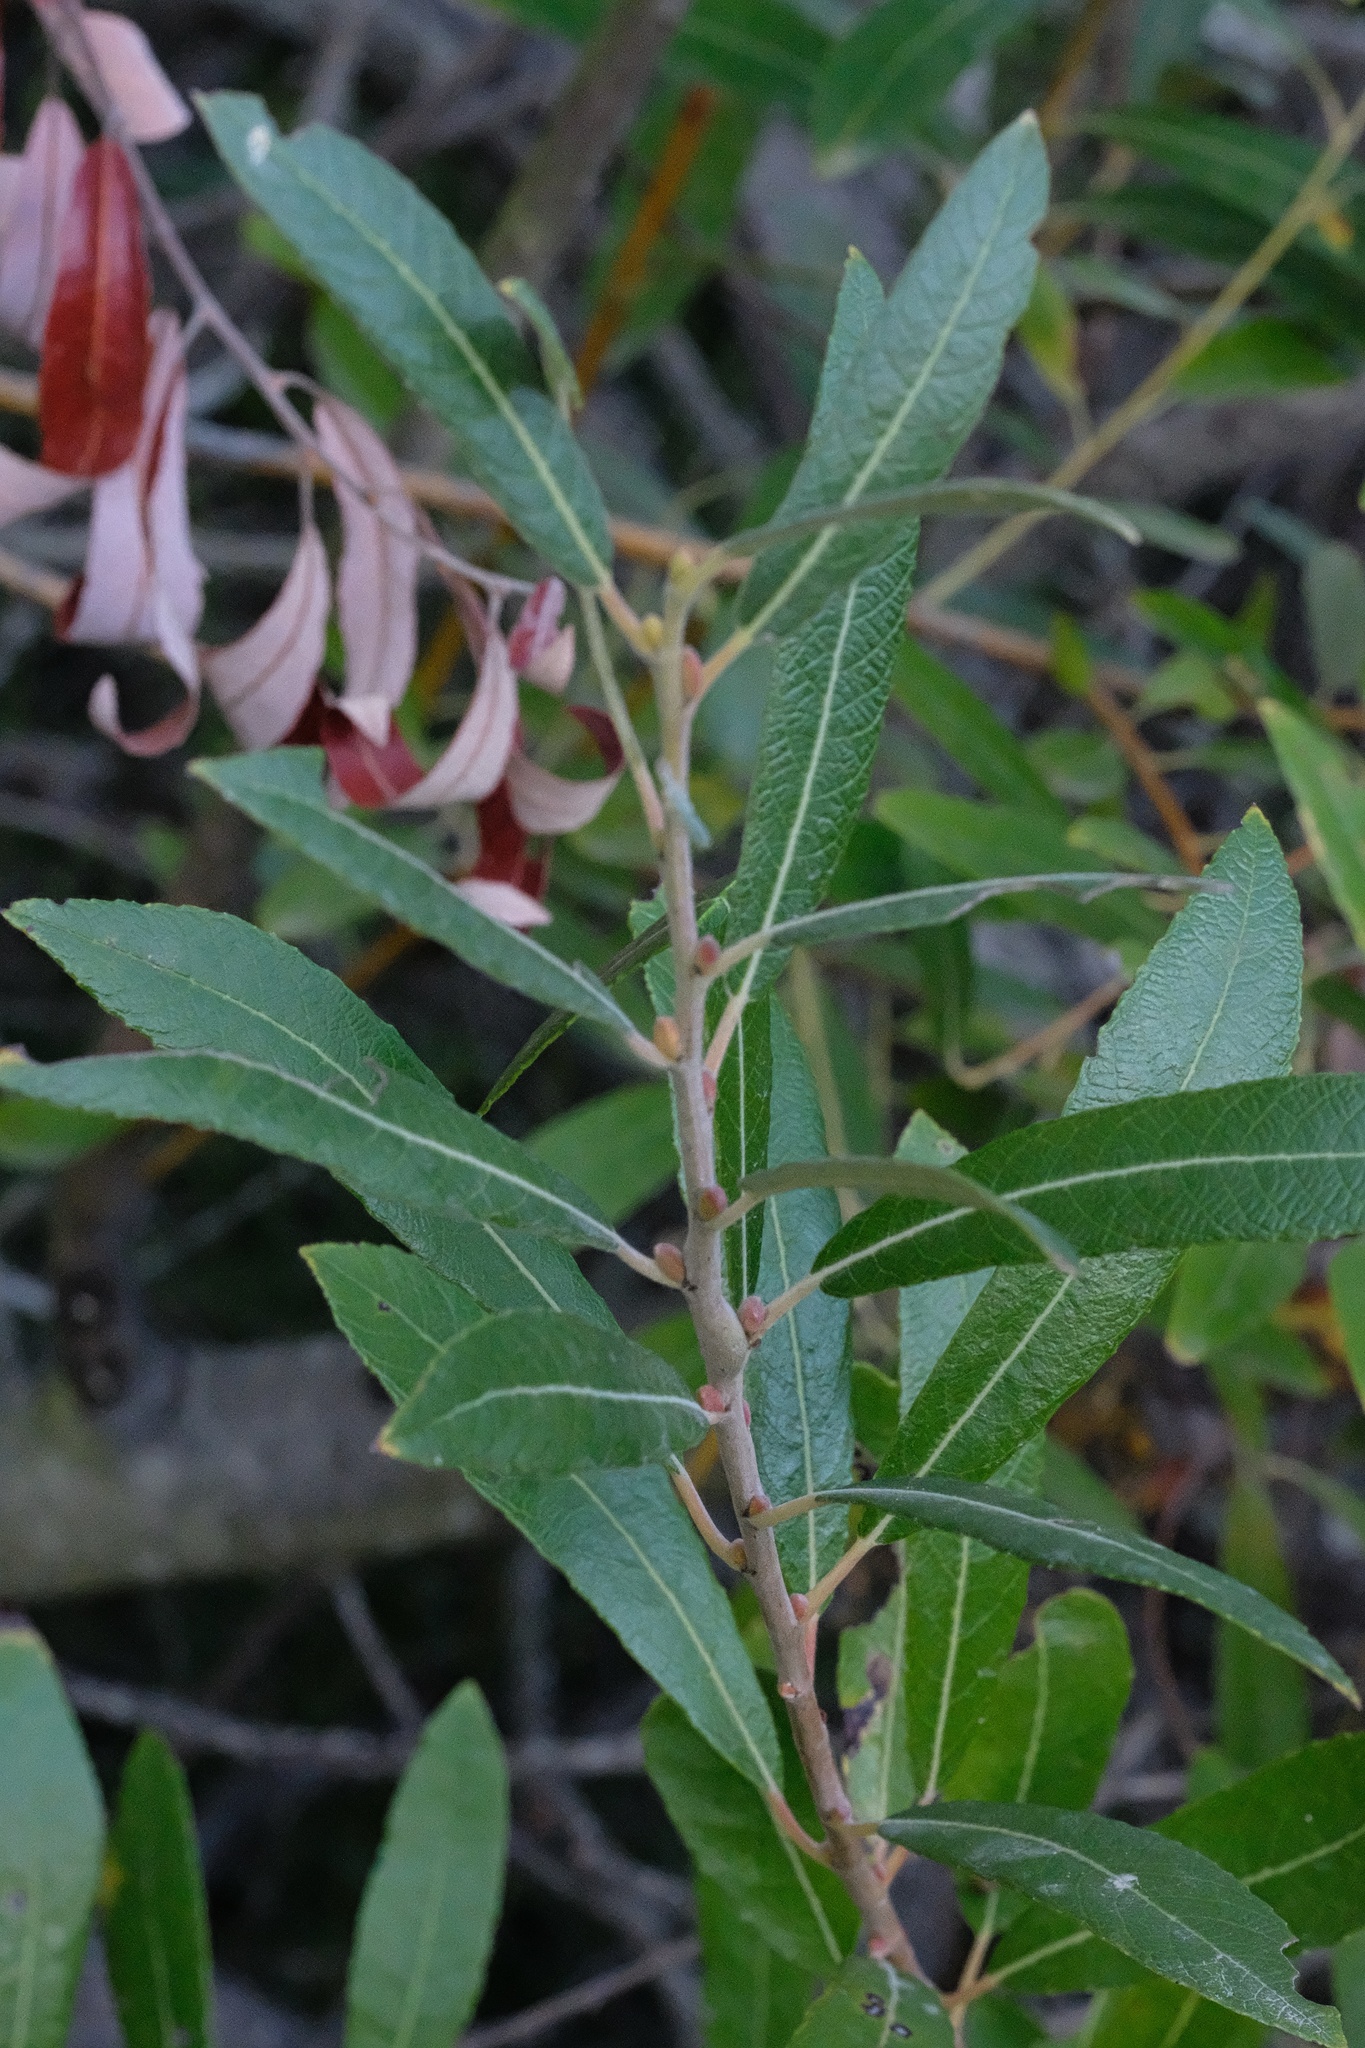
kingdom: Plantae
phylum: Tracheophyta
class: Magnoliopsida
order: Malpighiales
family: Salicaceae
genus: Salix
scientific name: Salix lasiolepis
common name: Arroyo willow
